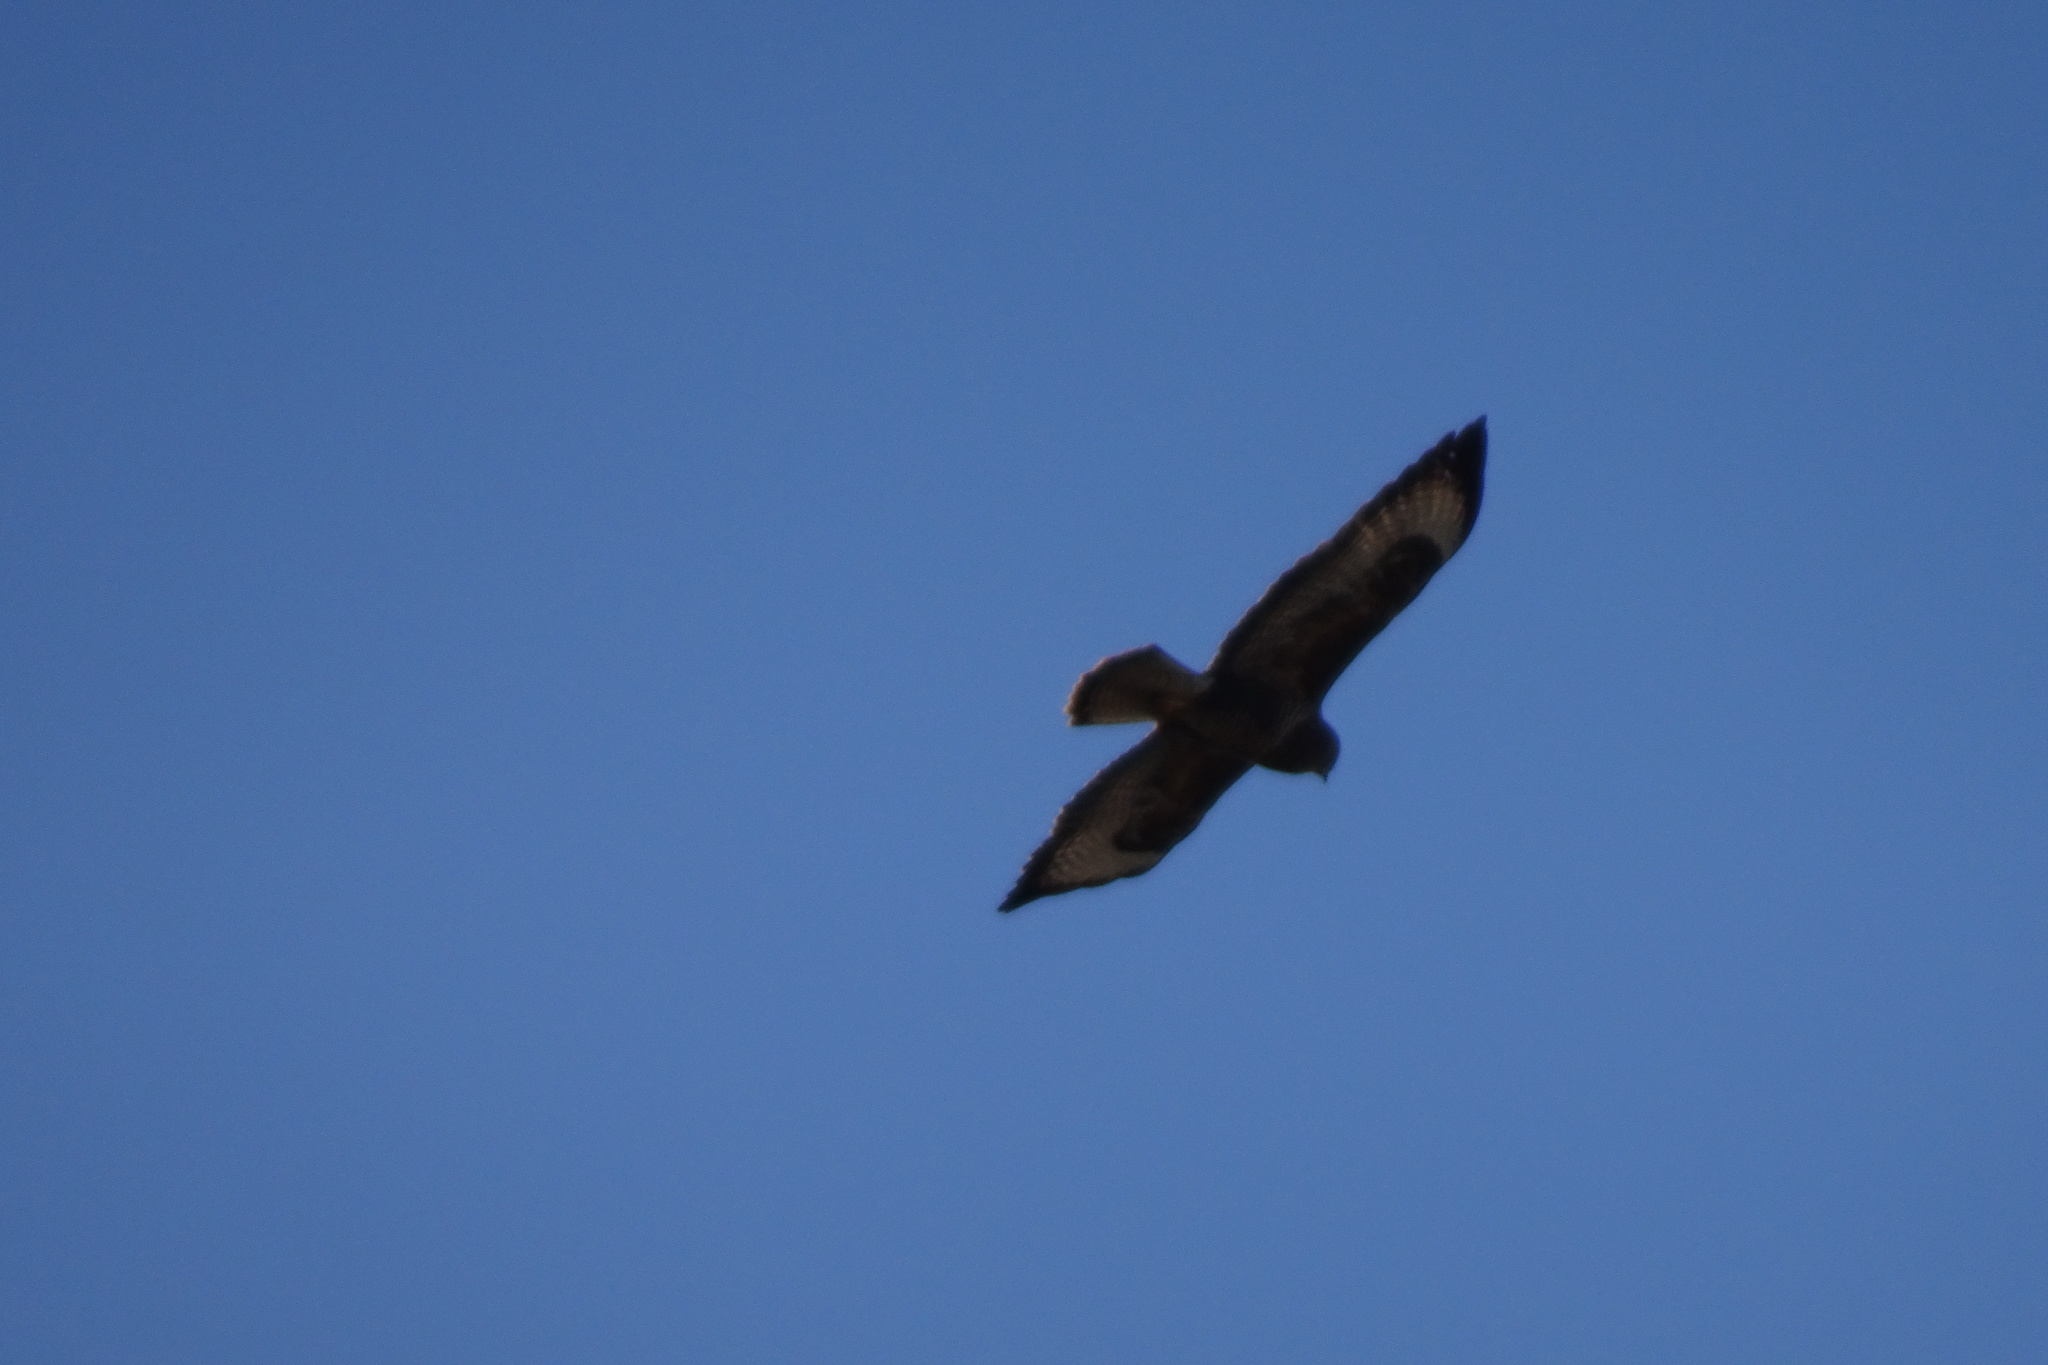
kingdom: Animalia
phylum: Chordata
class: Aves
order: Accipitriformes
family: Accipitridae
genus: Buteo
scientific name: Buteo buteo
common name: Common buzzard
